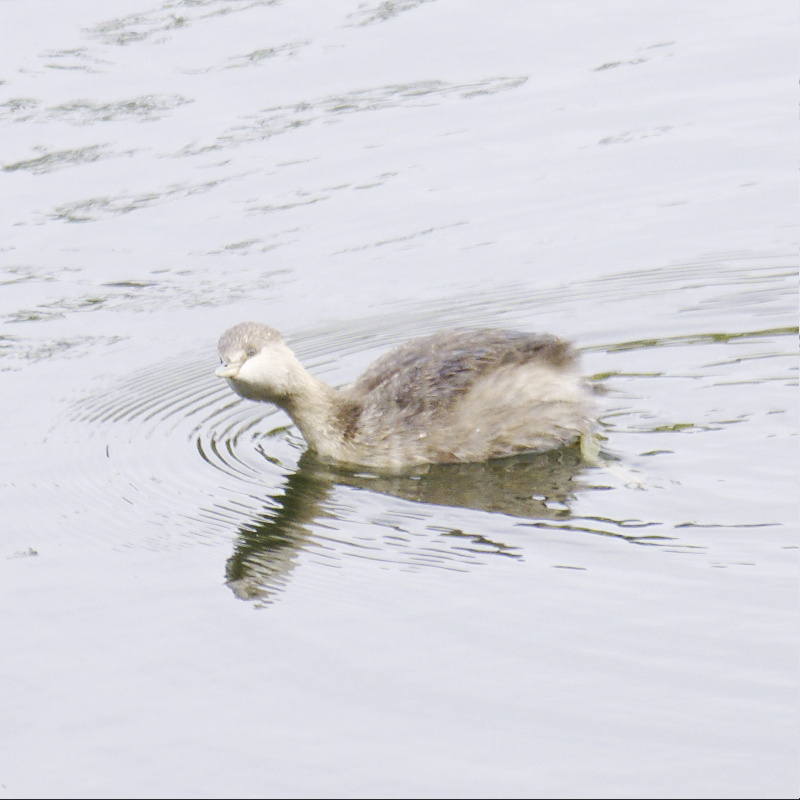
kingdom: Animalia
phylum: Chordata
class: Aves
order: Podicipediformes
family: Podicipedidae
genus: Poliocephalus
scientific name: Poliocephalus poliocephalus
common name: Hoary-headed grebe
